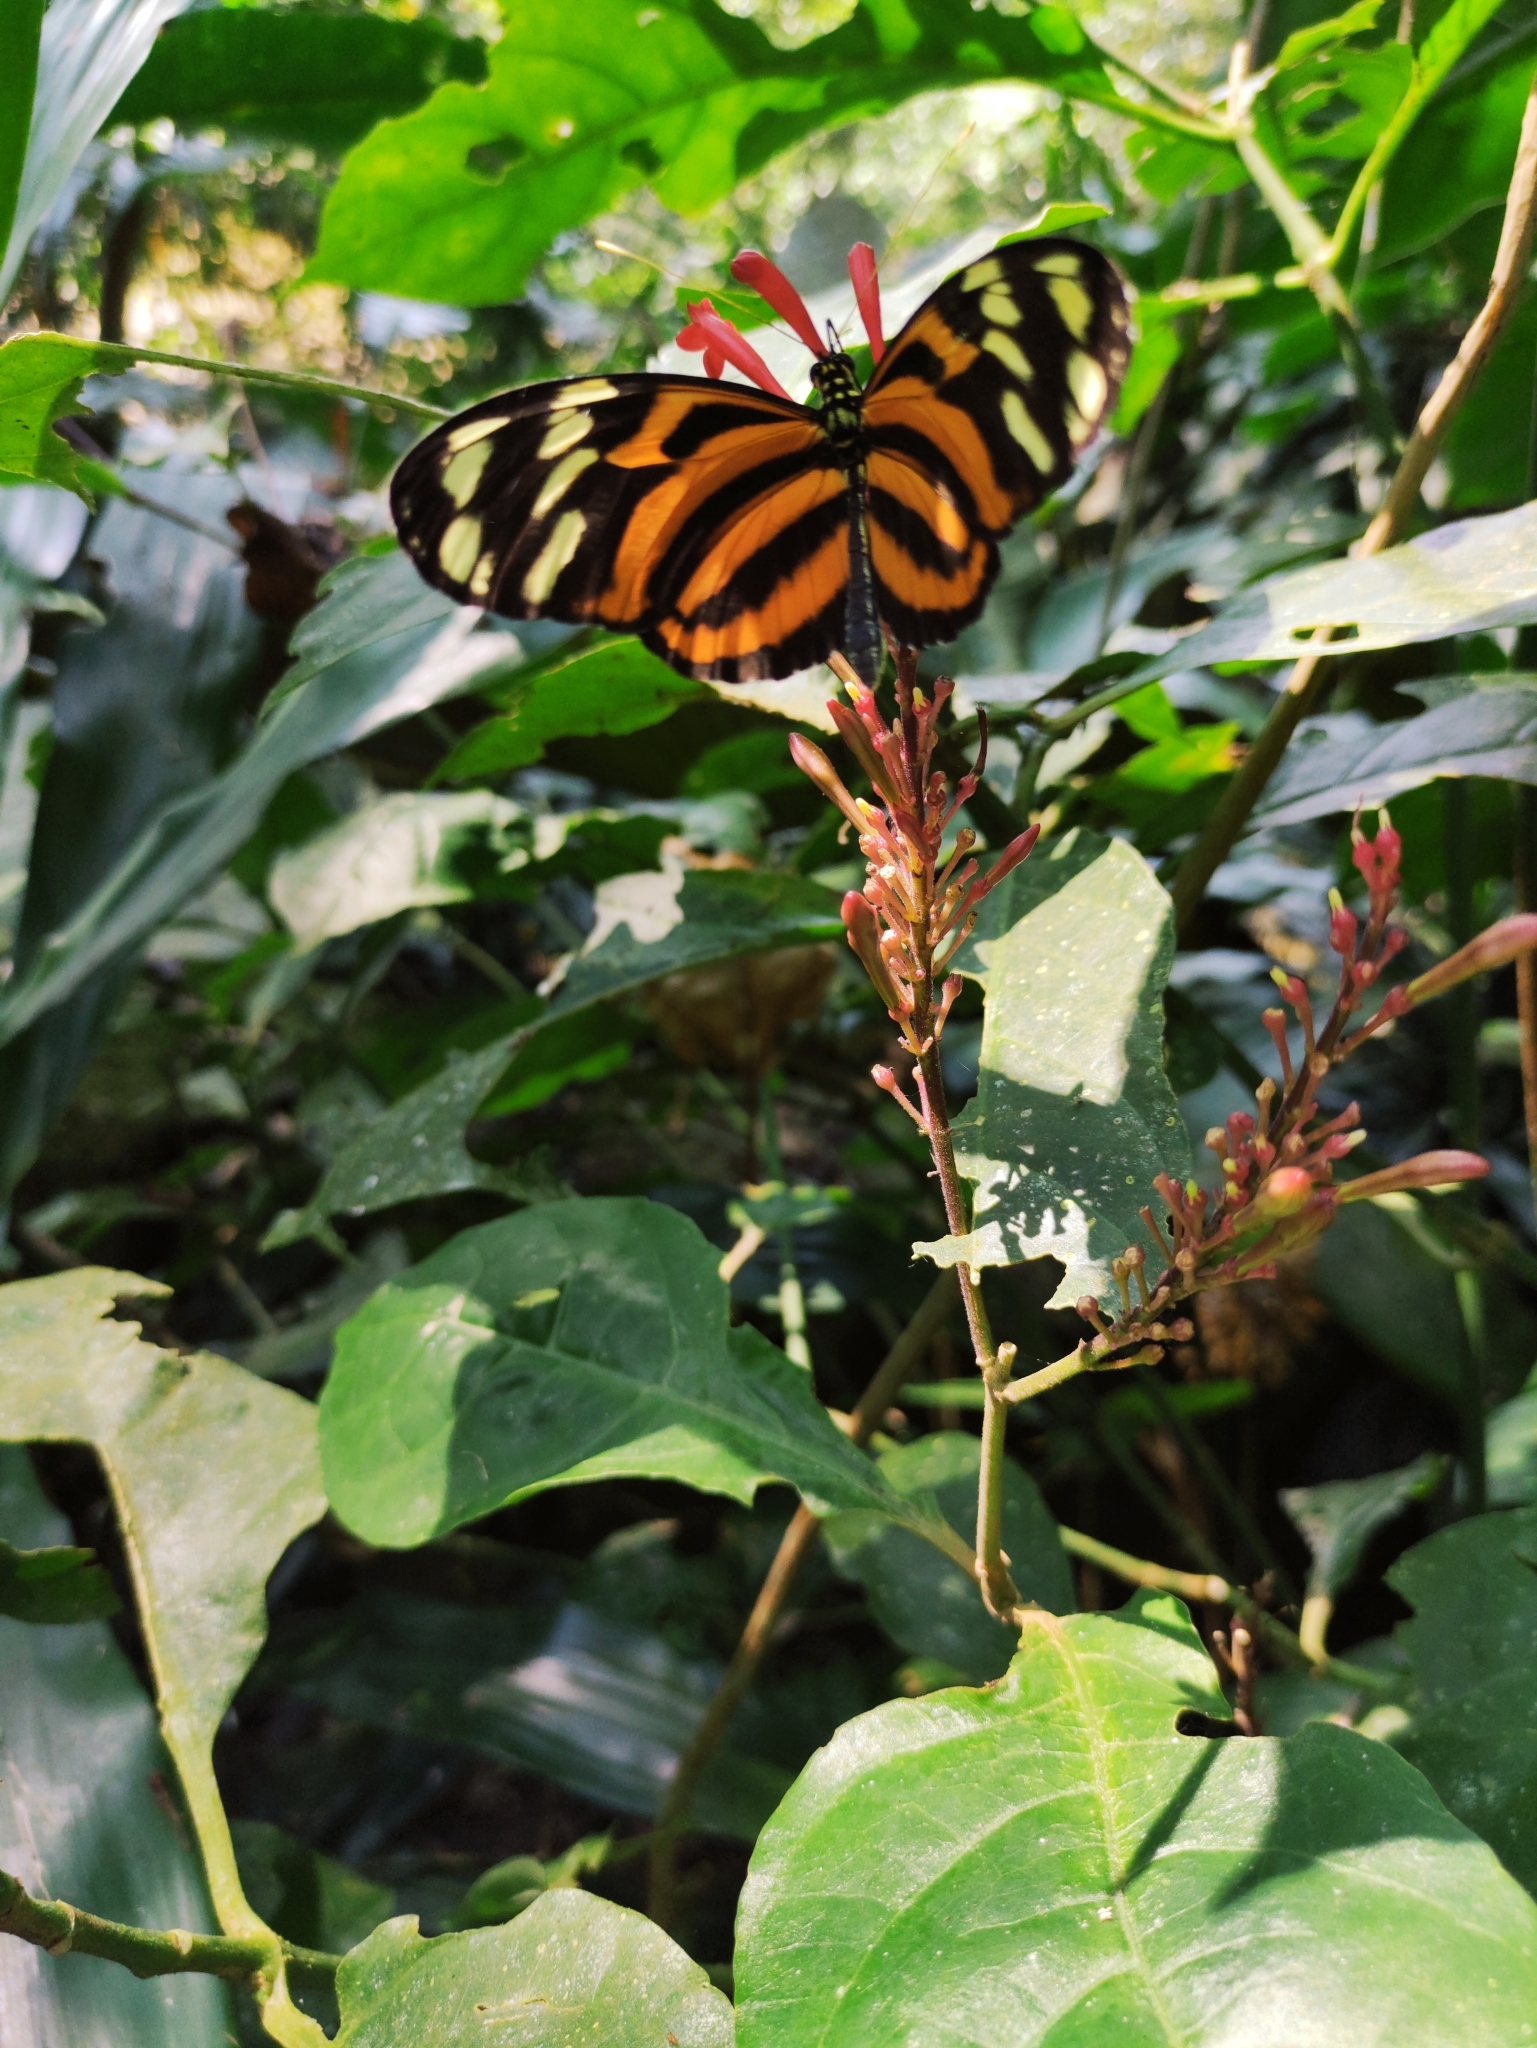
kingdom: Animalia
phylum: Arthropoda
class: Insecta
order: Lepidoptera
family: Nymphalidae
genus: Heliconius
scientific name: Heliconius ismenius
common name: Ismenius tiger
